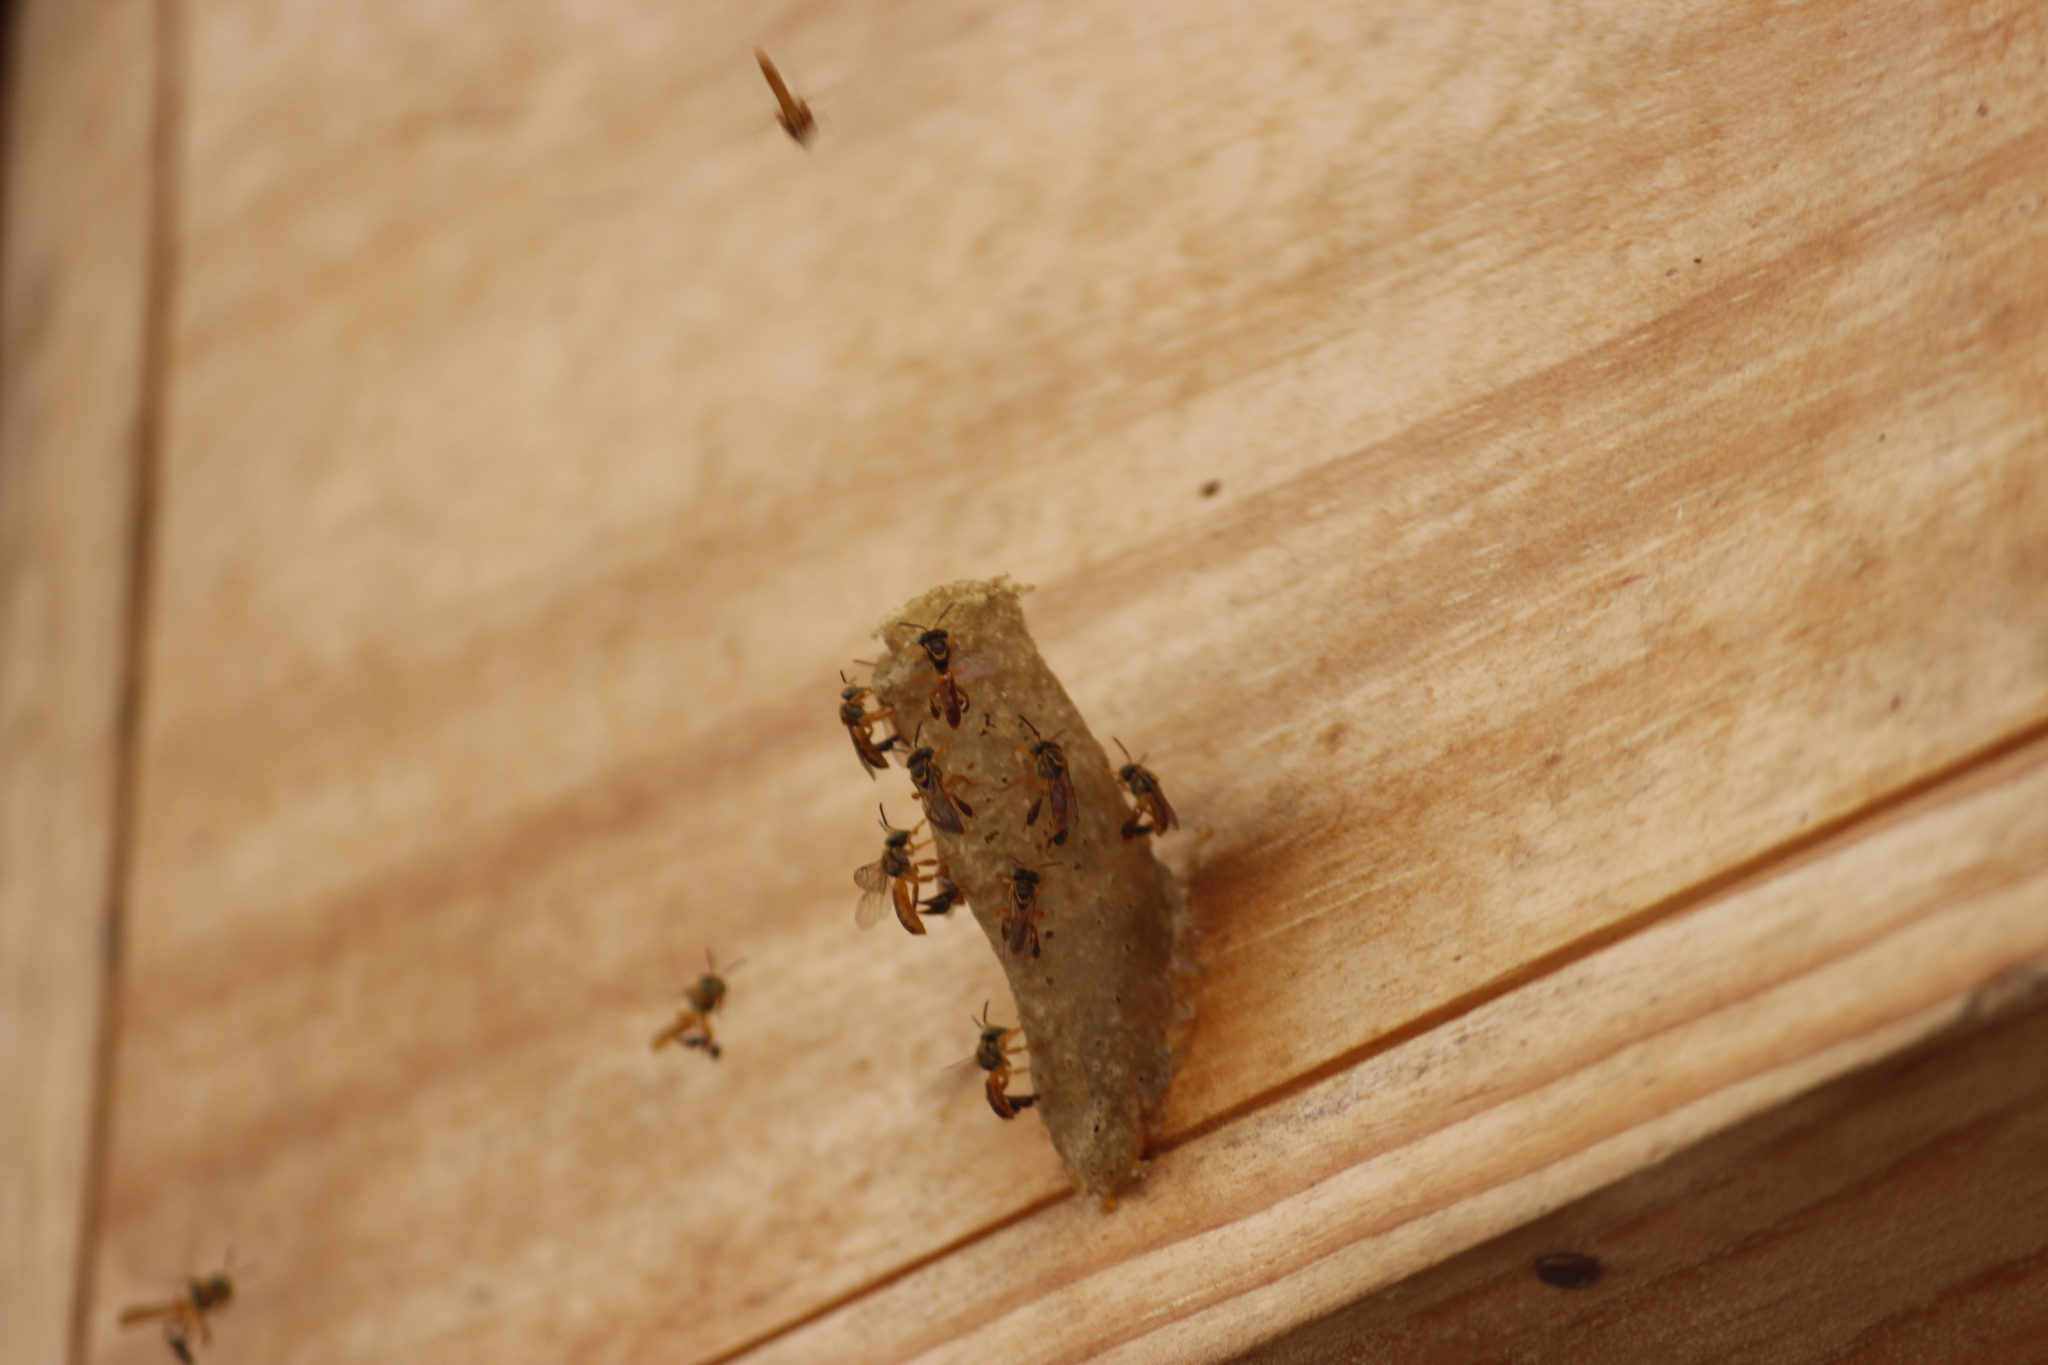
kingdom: Animalia
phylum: Arthropoda
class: Insecta
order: Hymenoptera
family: Apidae
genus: Tetragonisca
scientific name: Tetragonisca angustula
